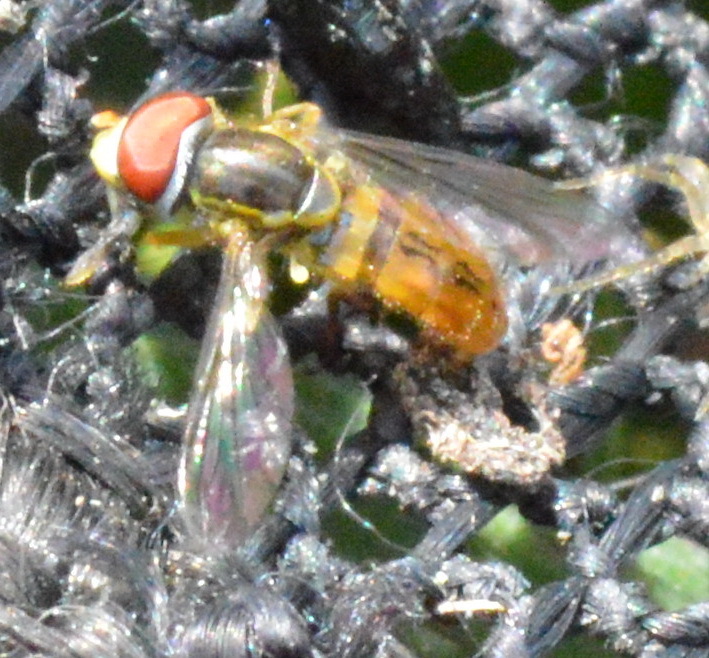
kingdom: Animalia
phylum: Arthropoda
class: Insecta
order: Diptera
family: Syrphidae
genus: Toxomerus
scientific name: Toxomerus boscii
